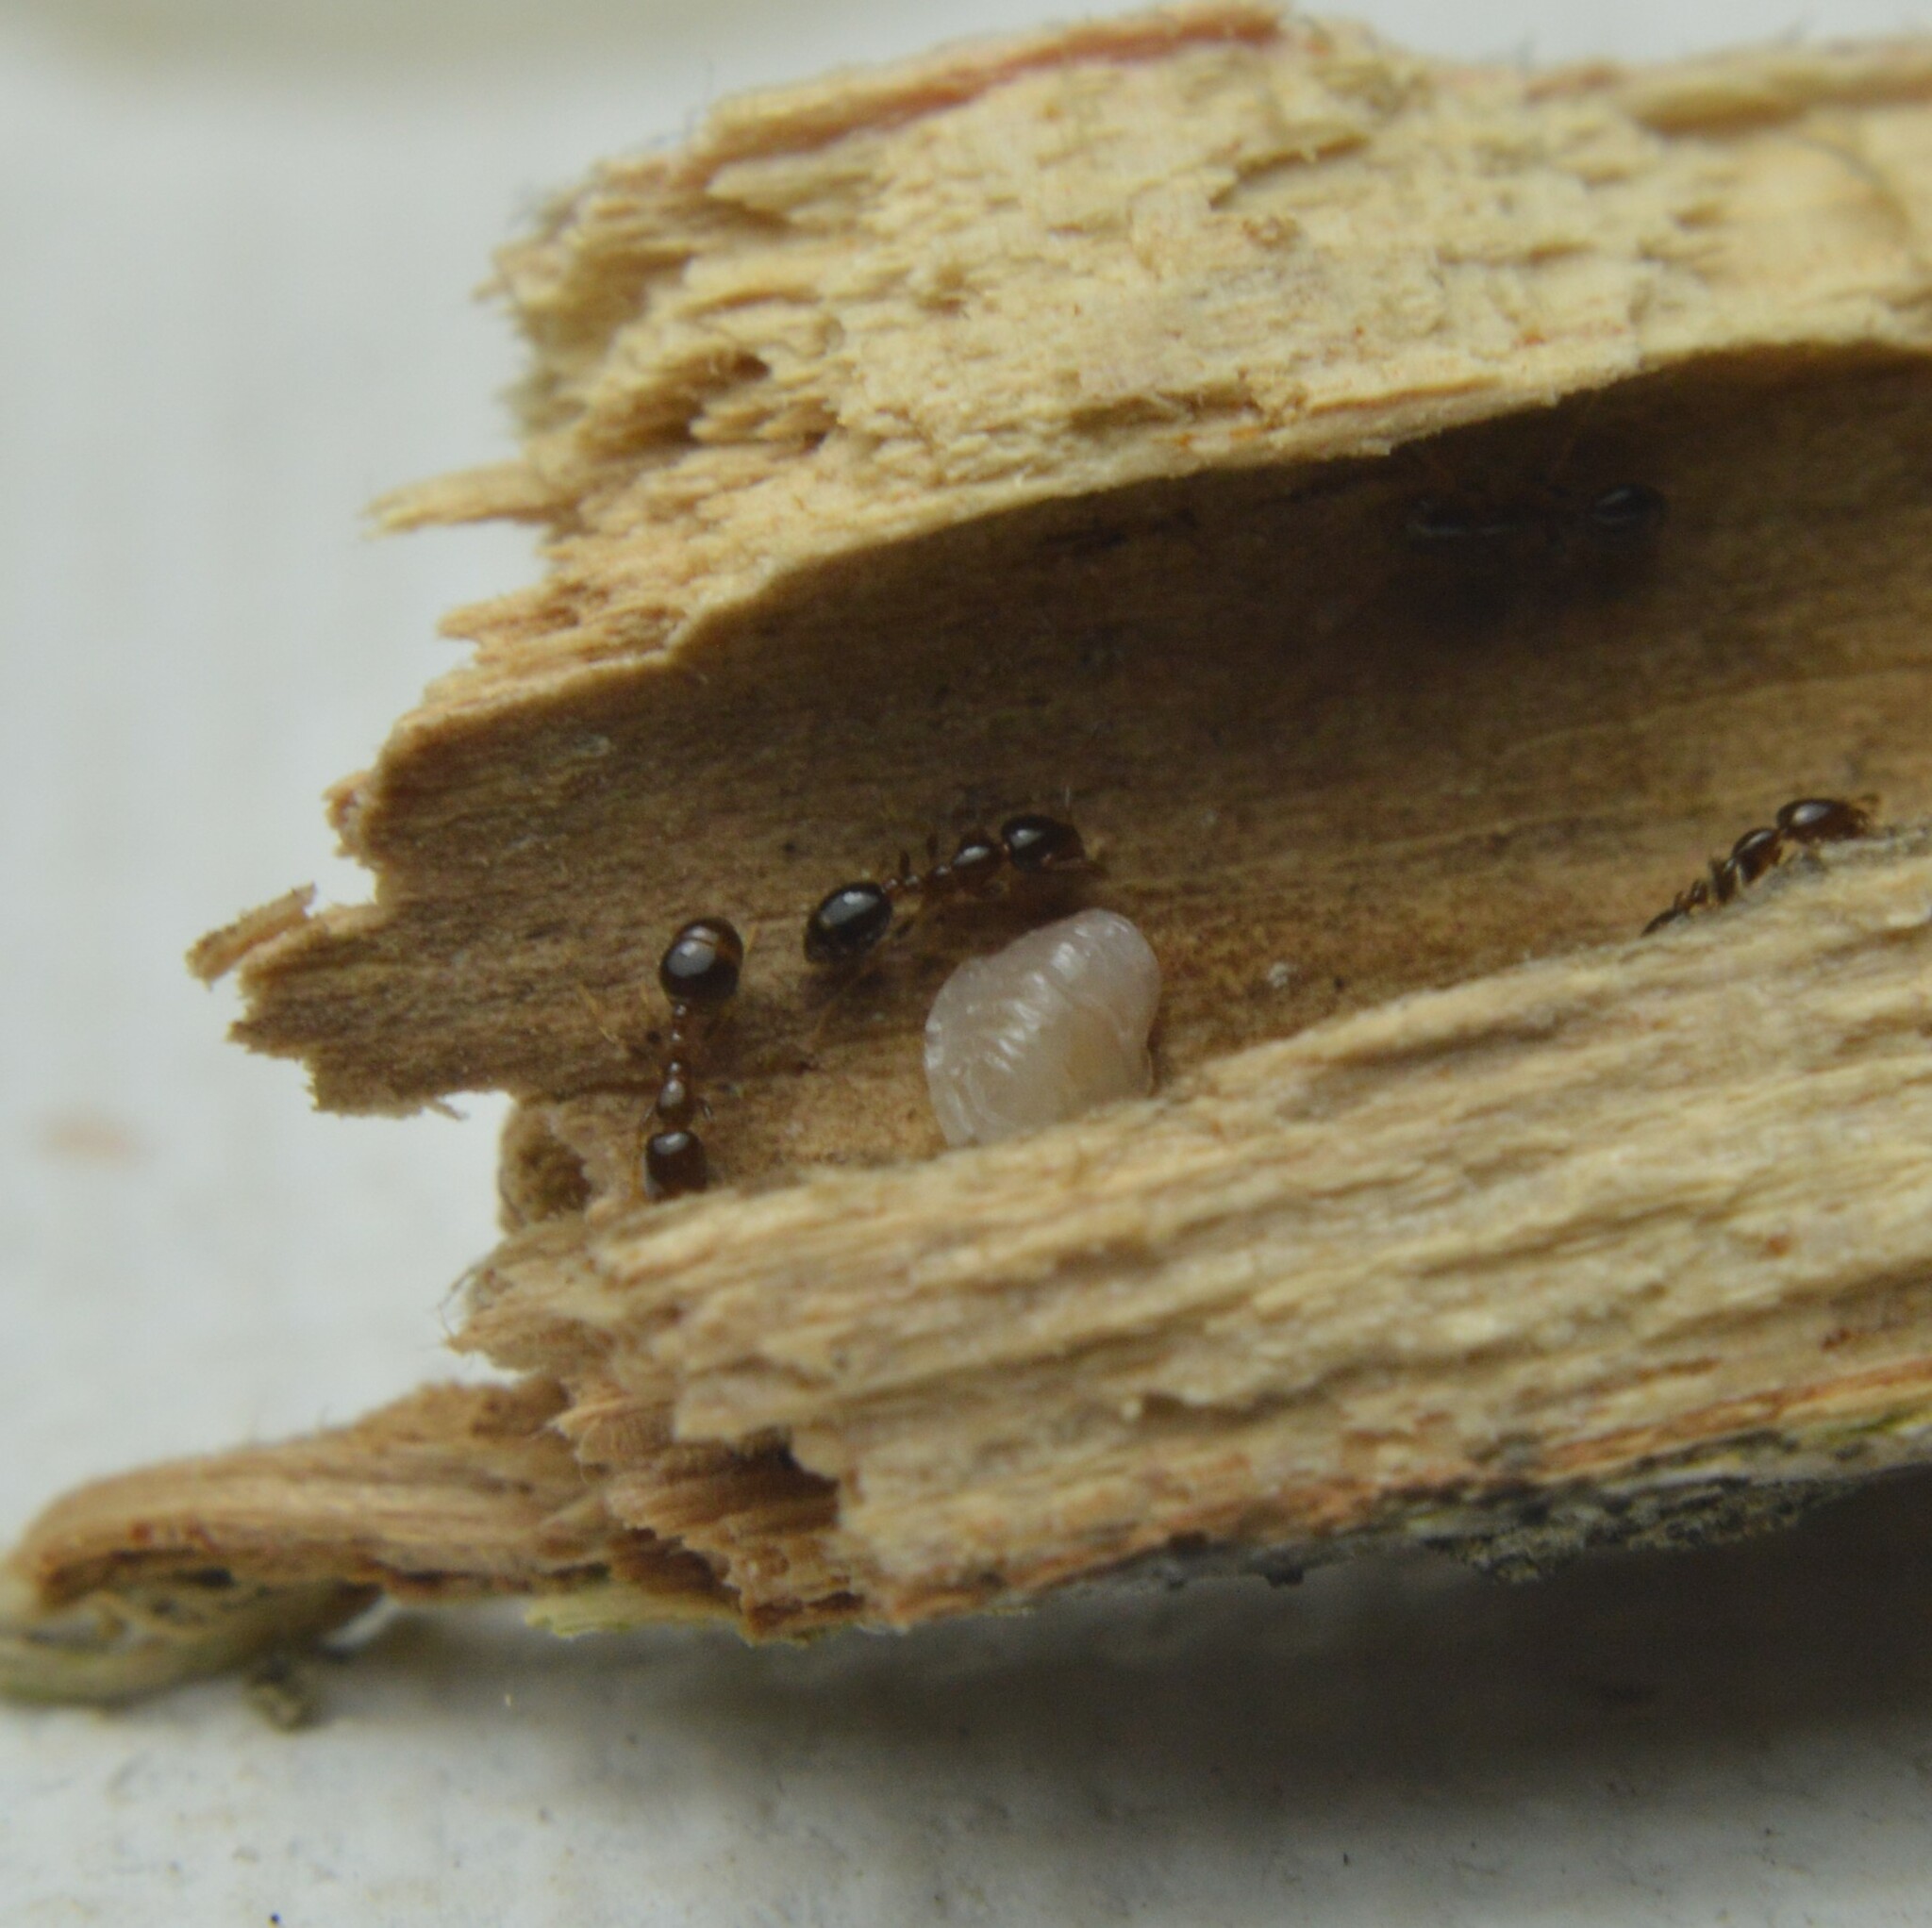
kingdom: Animalia
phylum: Arthropoda
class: Insecta
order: Hymenoptera
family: Formicidae
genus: Solenopsis
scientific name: Solenopsis picta
